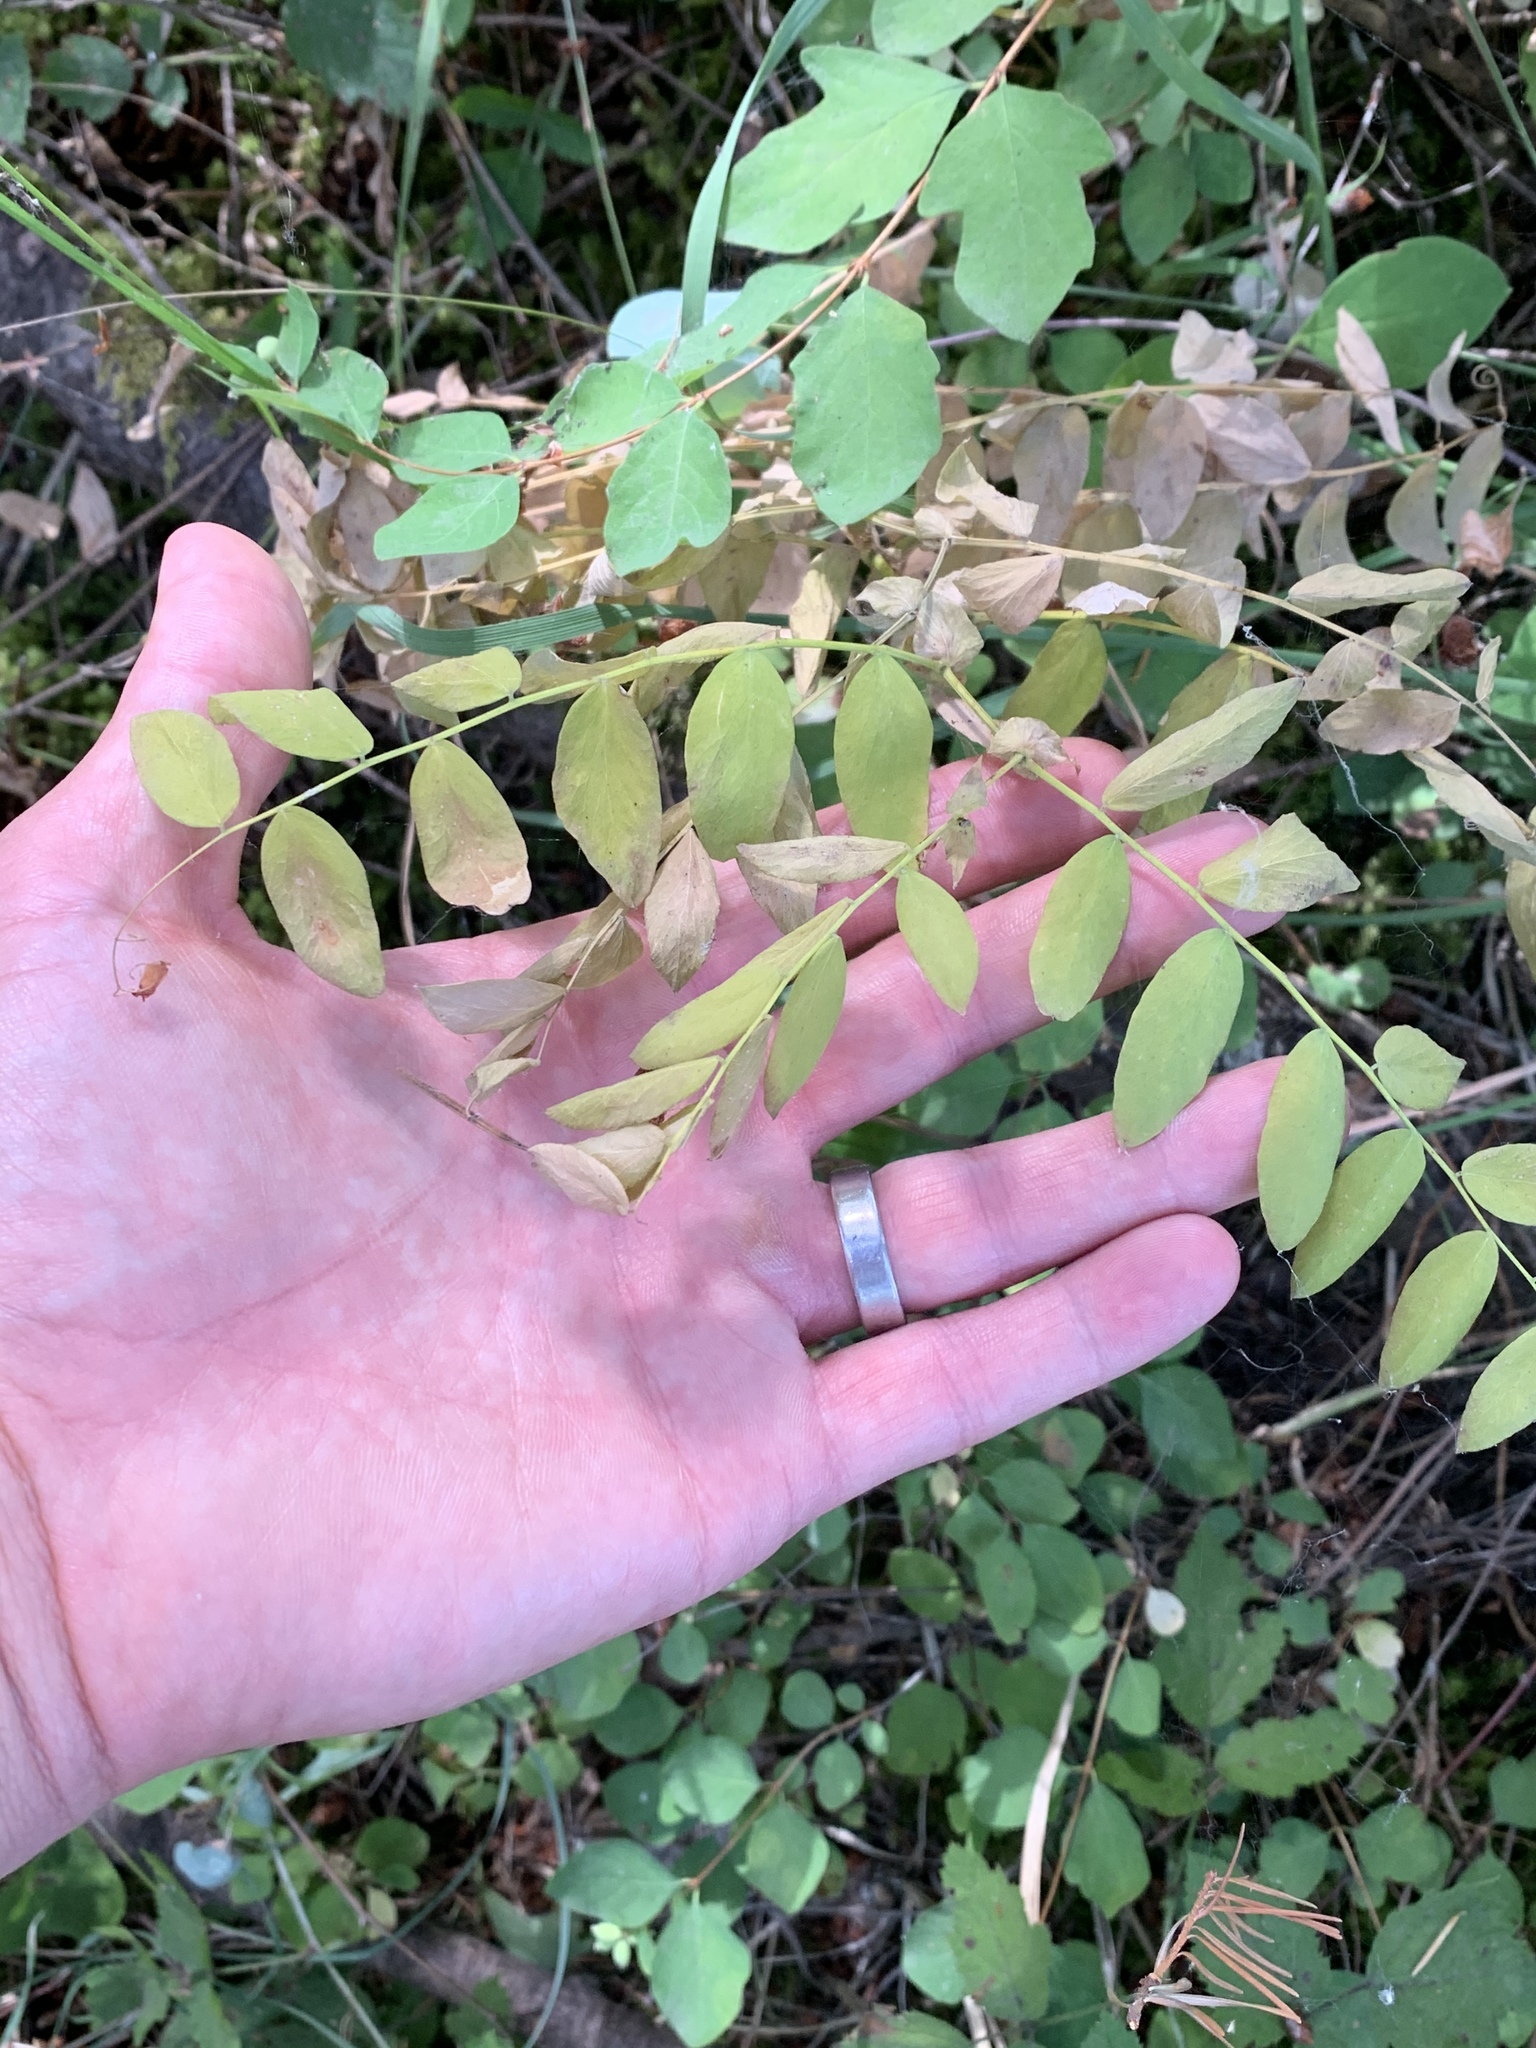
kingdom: Plantae
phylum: Tracheophyta
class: Magnoliopsida
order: Fabales
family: Fabaceae
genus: Lathyrus
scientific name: Lathyrus polyphyllus
